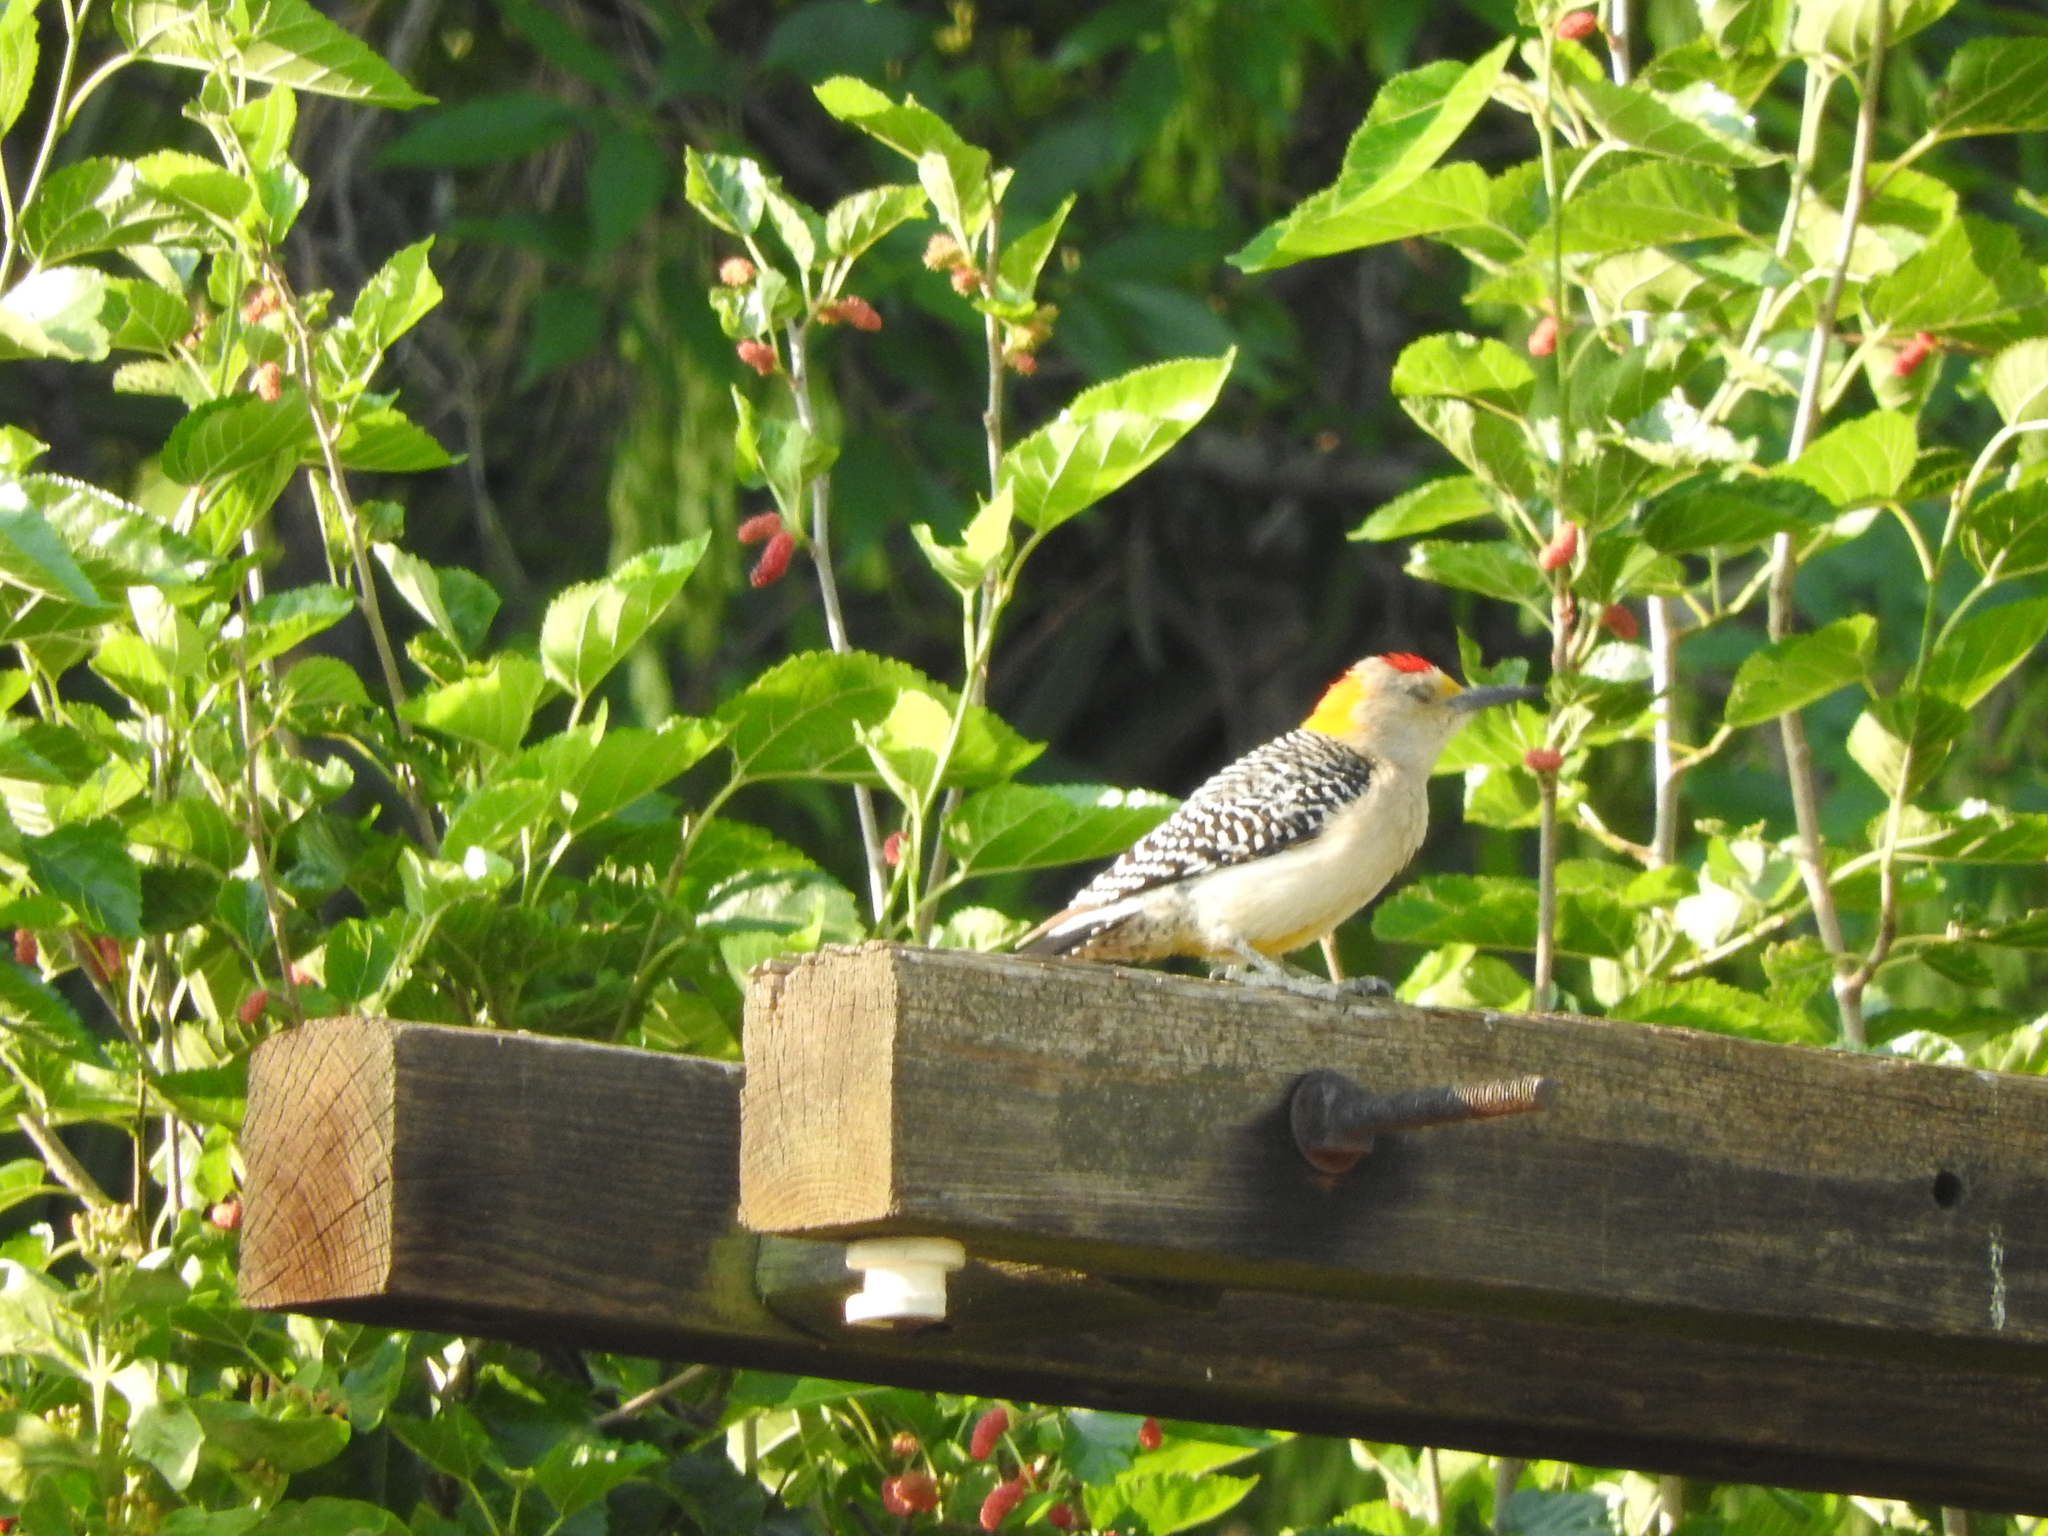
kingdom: Animalia
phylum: Chordata
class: Aves
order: Piciformes
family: Picidae
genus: Melanerpes
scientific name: Melanerpes aurifrons
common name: Golden-fronted woodpecker
